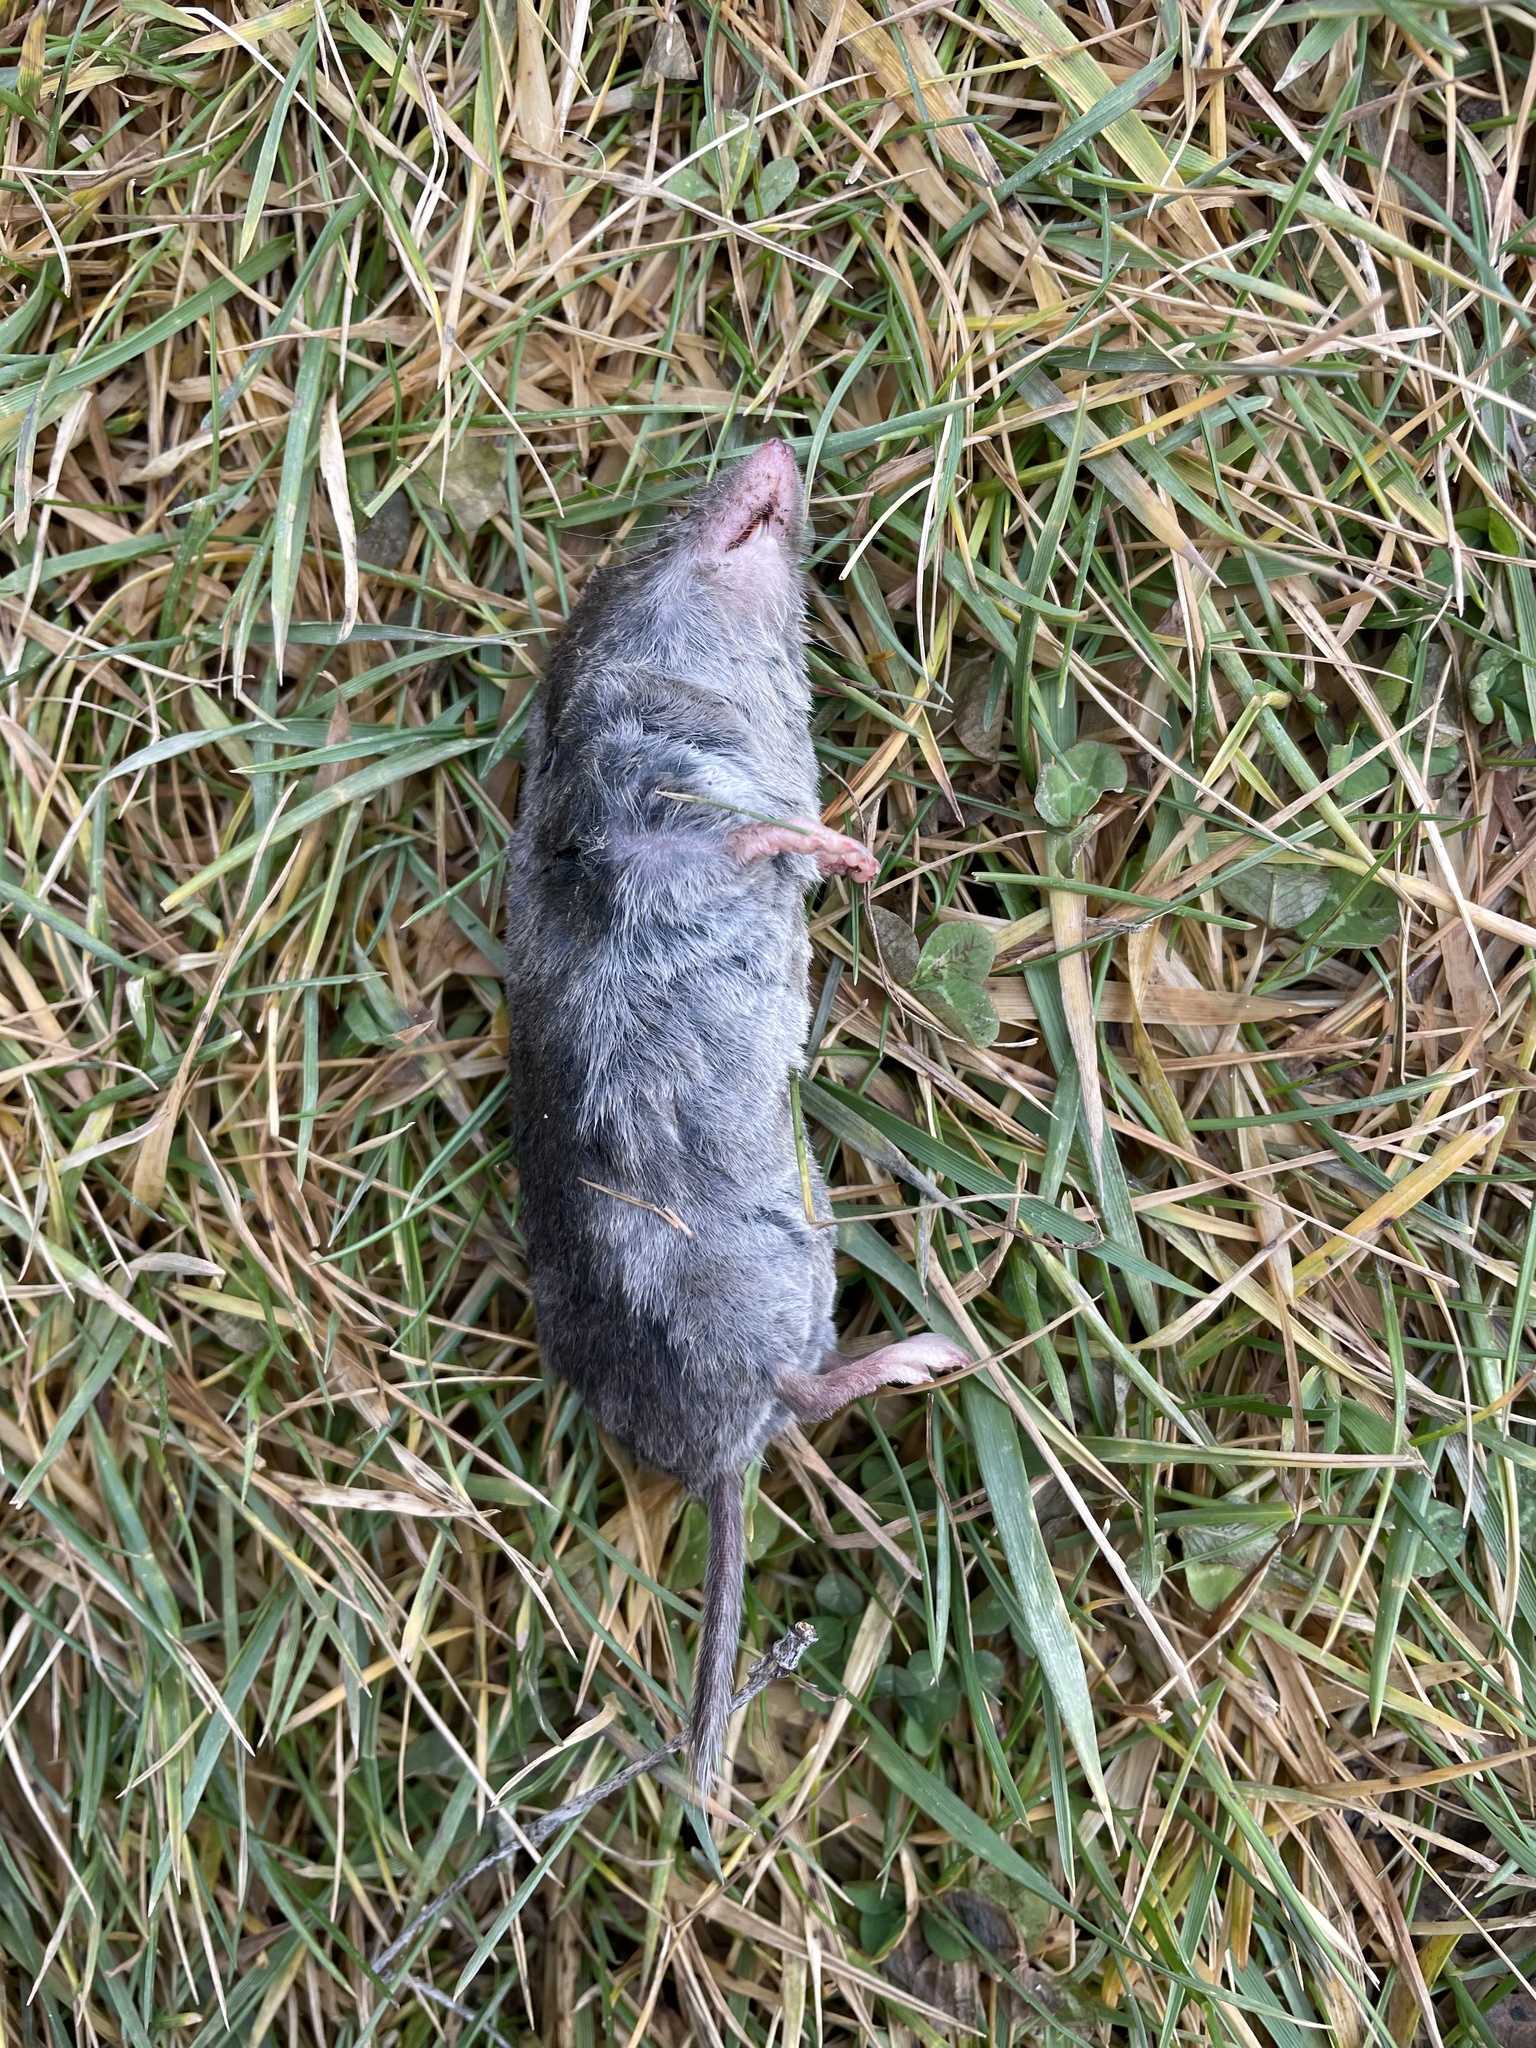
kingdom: Animalia
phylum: Chordata
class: Mammalia
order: Soricomorpha
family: Soricidae
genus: Blarina
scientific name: Blarina brevicauda
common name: Northern short-tailed shrew
